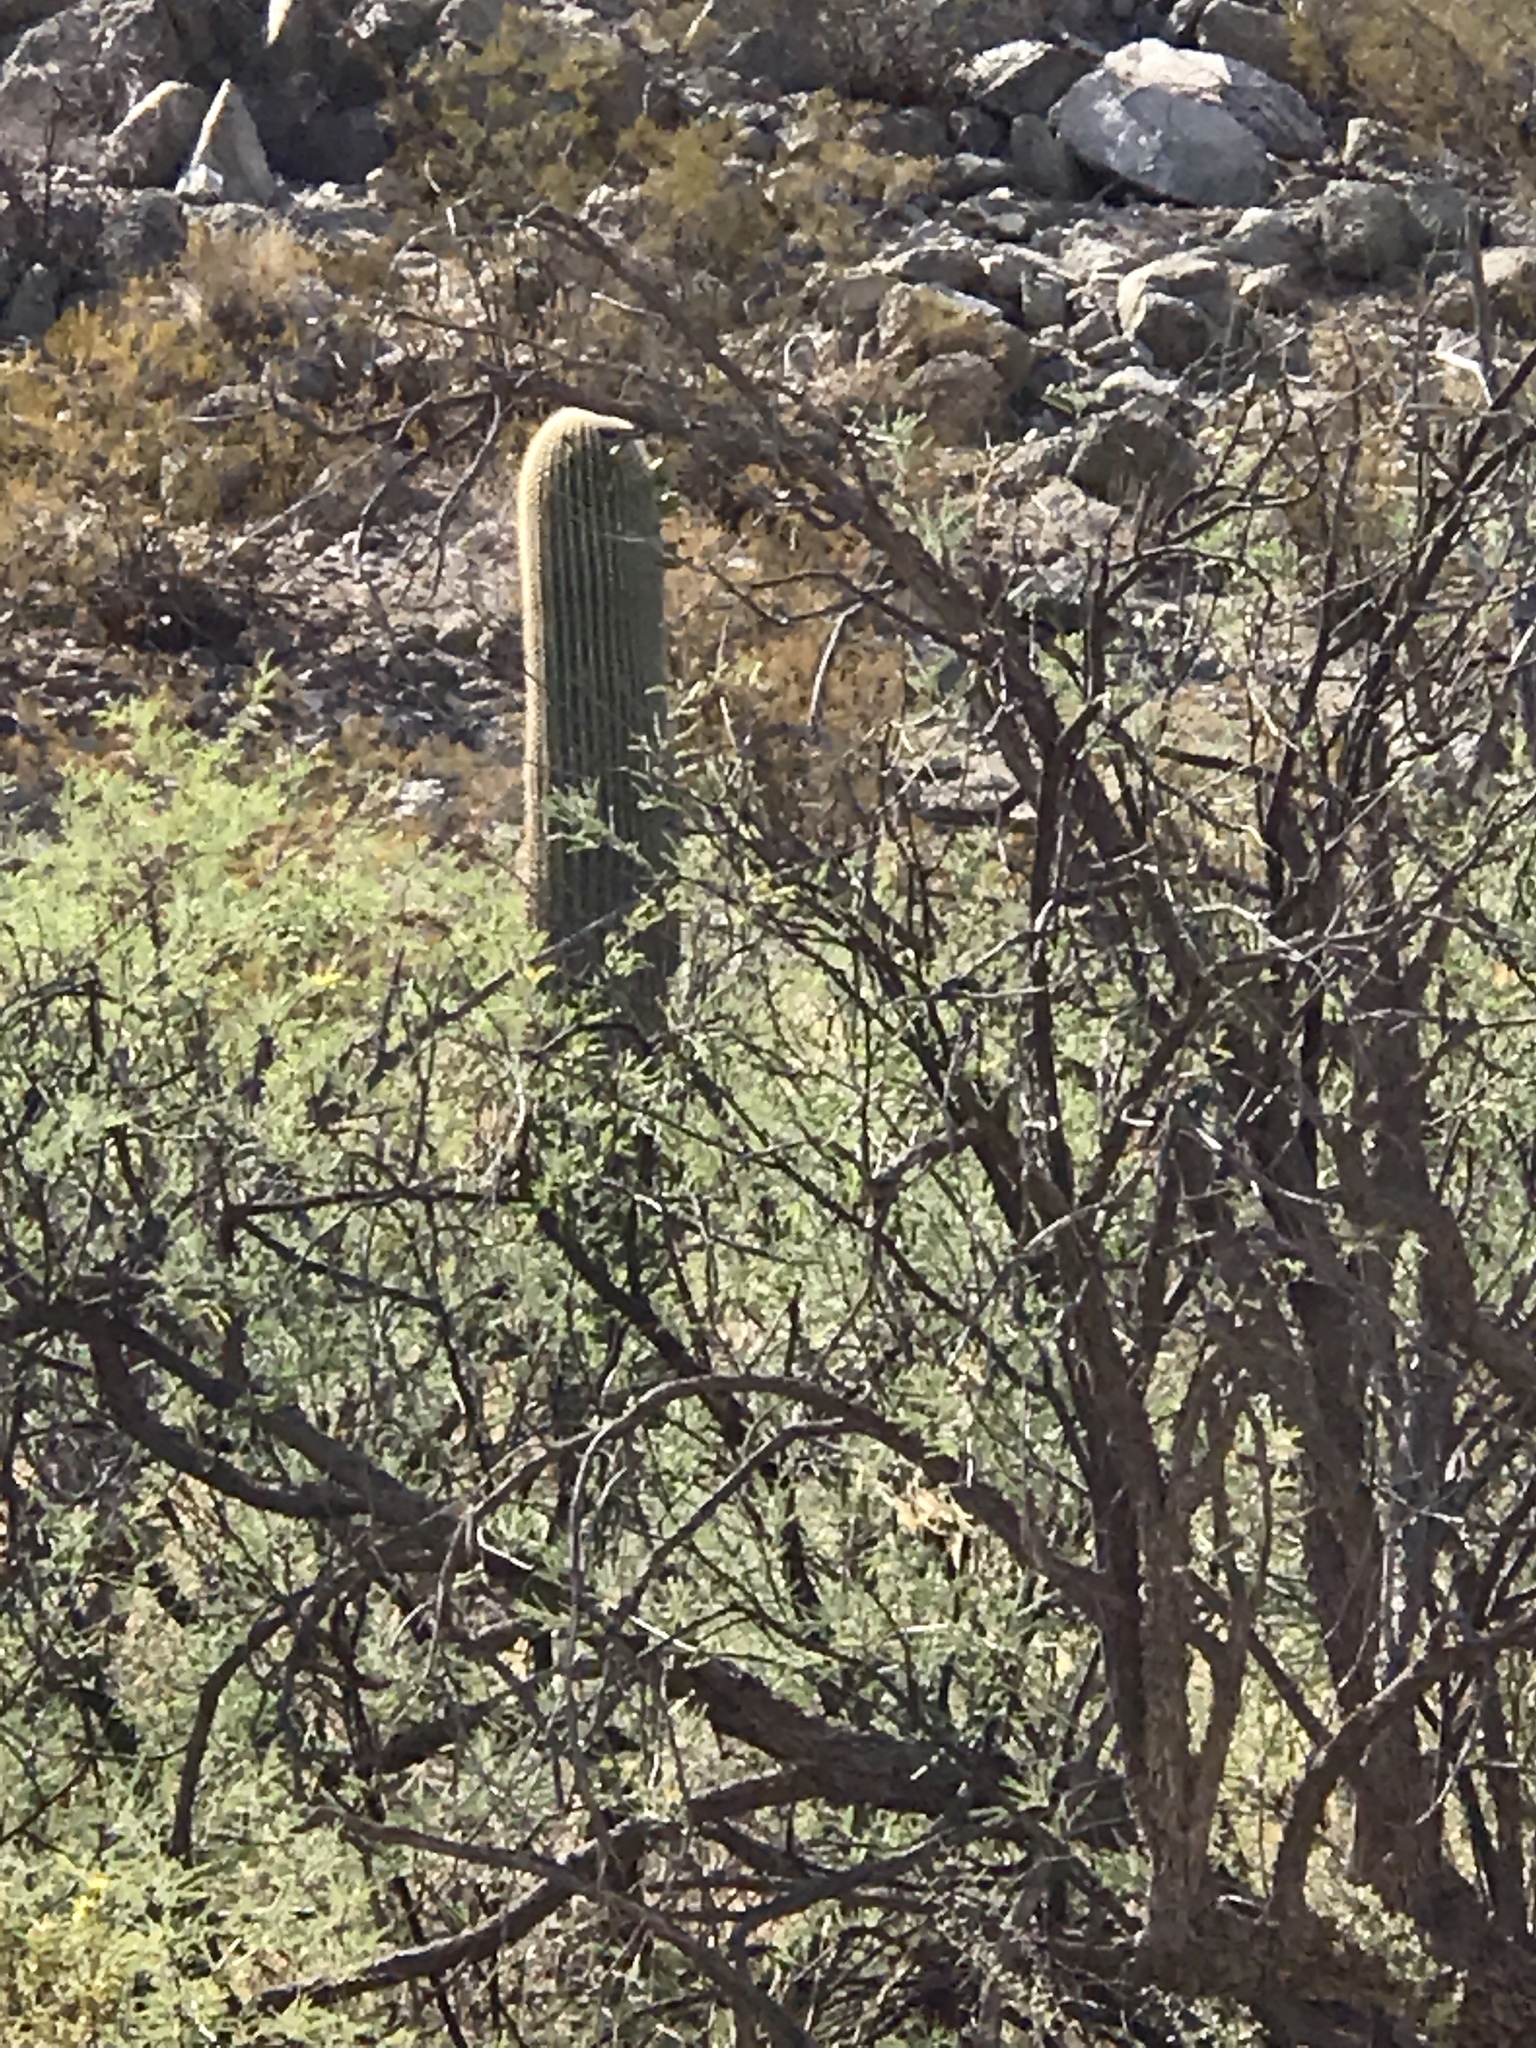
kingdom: Plantae
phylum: Tracheophyta
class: Magnoliopsida
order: Caryophyllales
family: Cactaceae
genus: Carnegiea
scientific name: Carnegiea gigantea
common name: Saguaro
